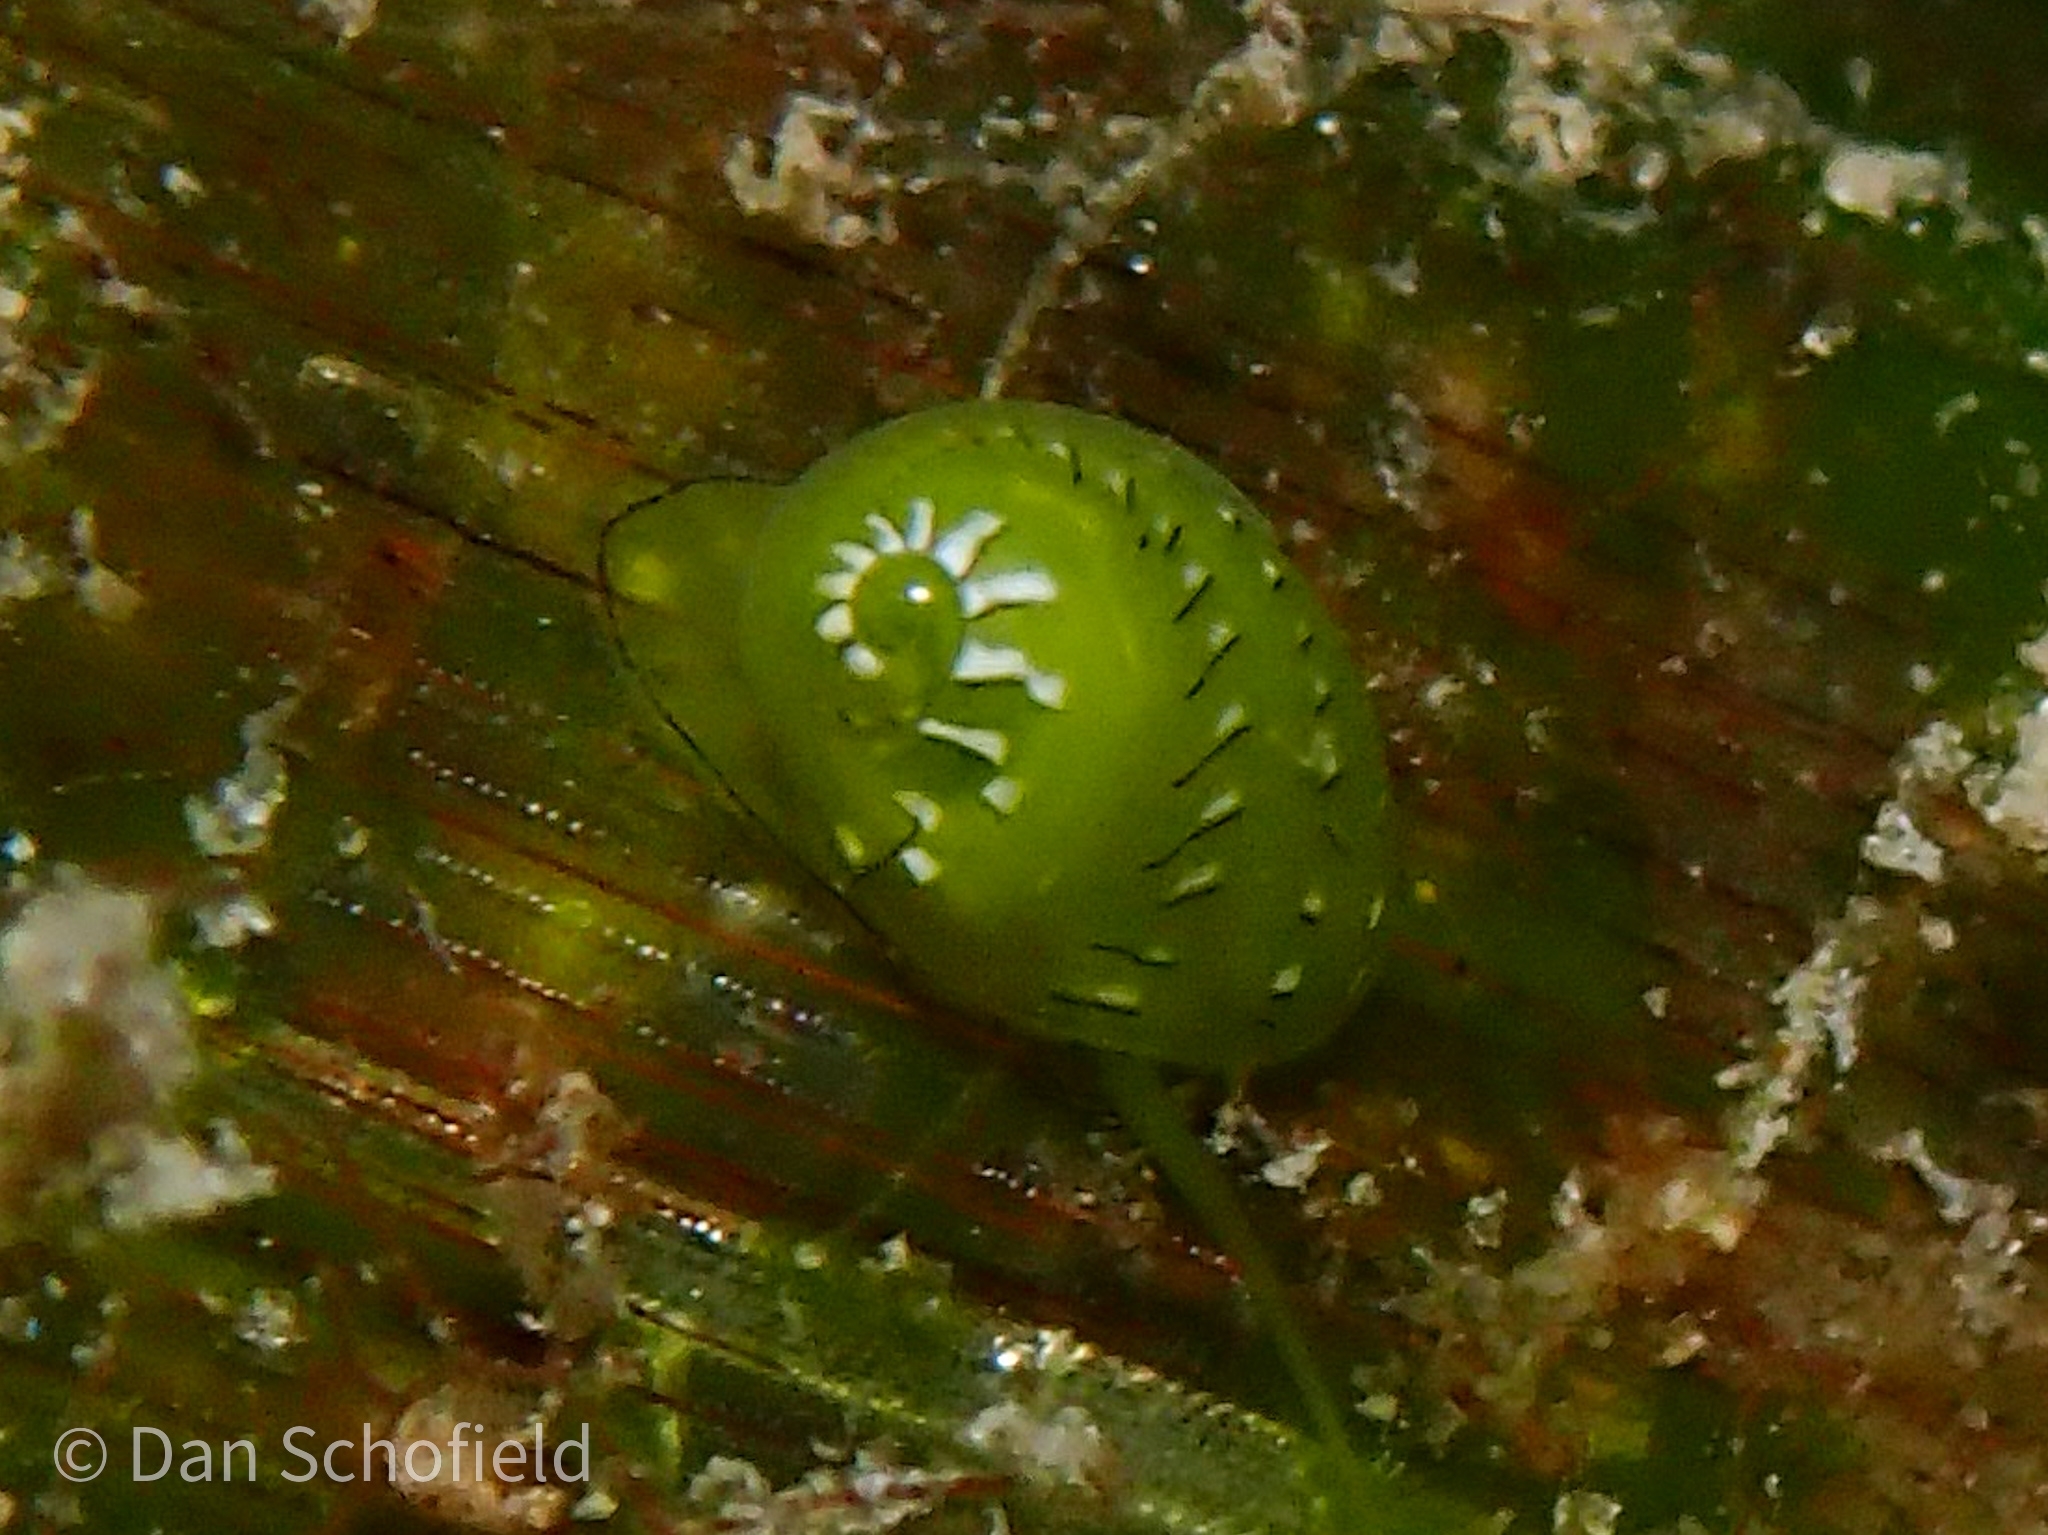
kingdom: Animalia
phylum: Mollusca
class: Gastropoda
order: Cycloneritida
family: Neritidae
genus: Smaragdia
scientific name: Smaragdia rangiana
